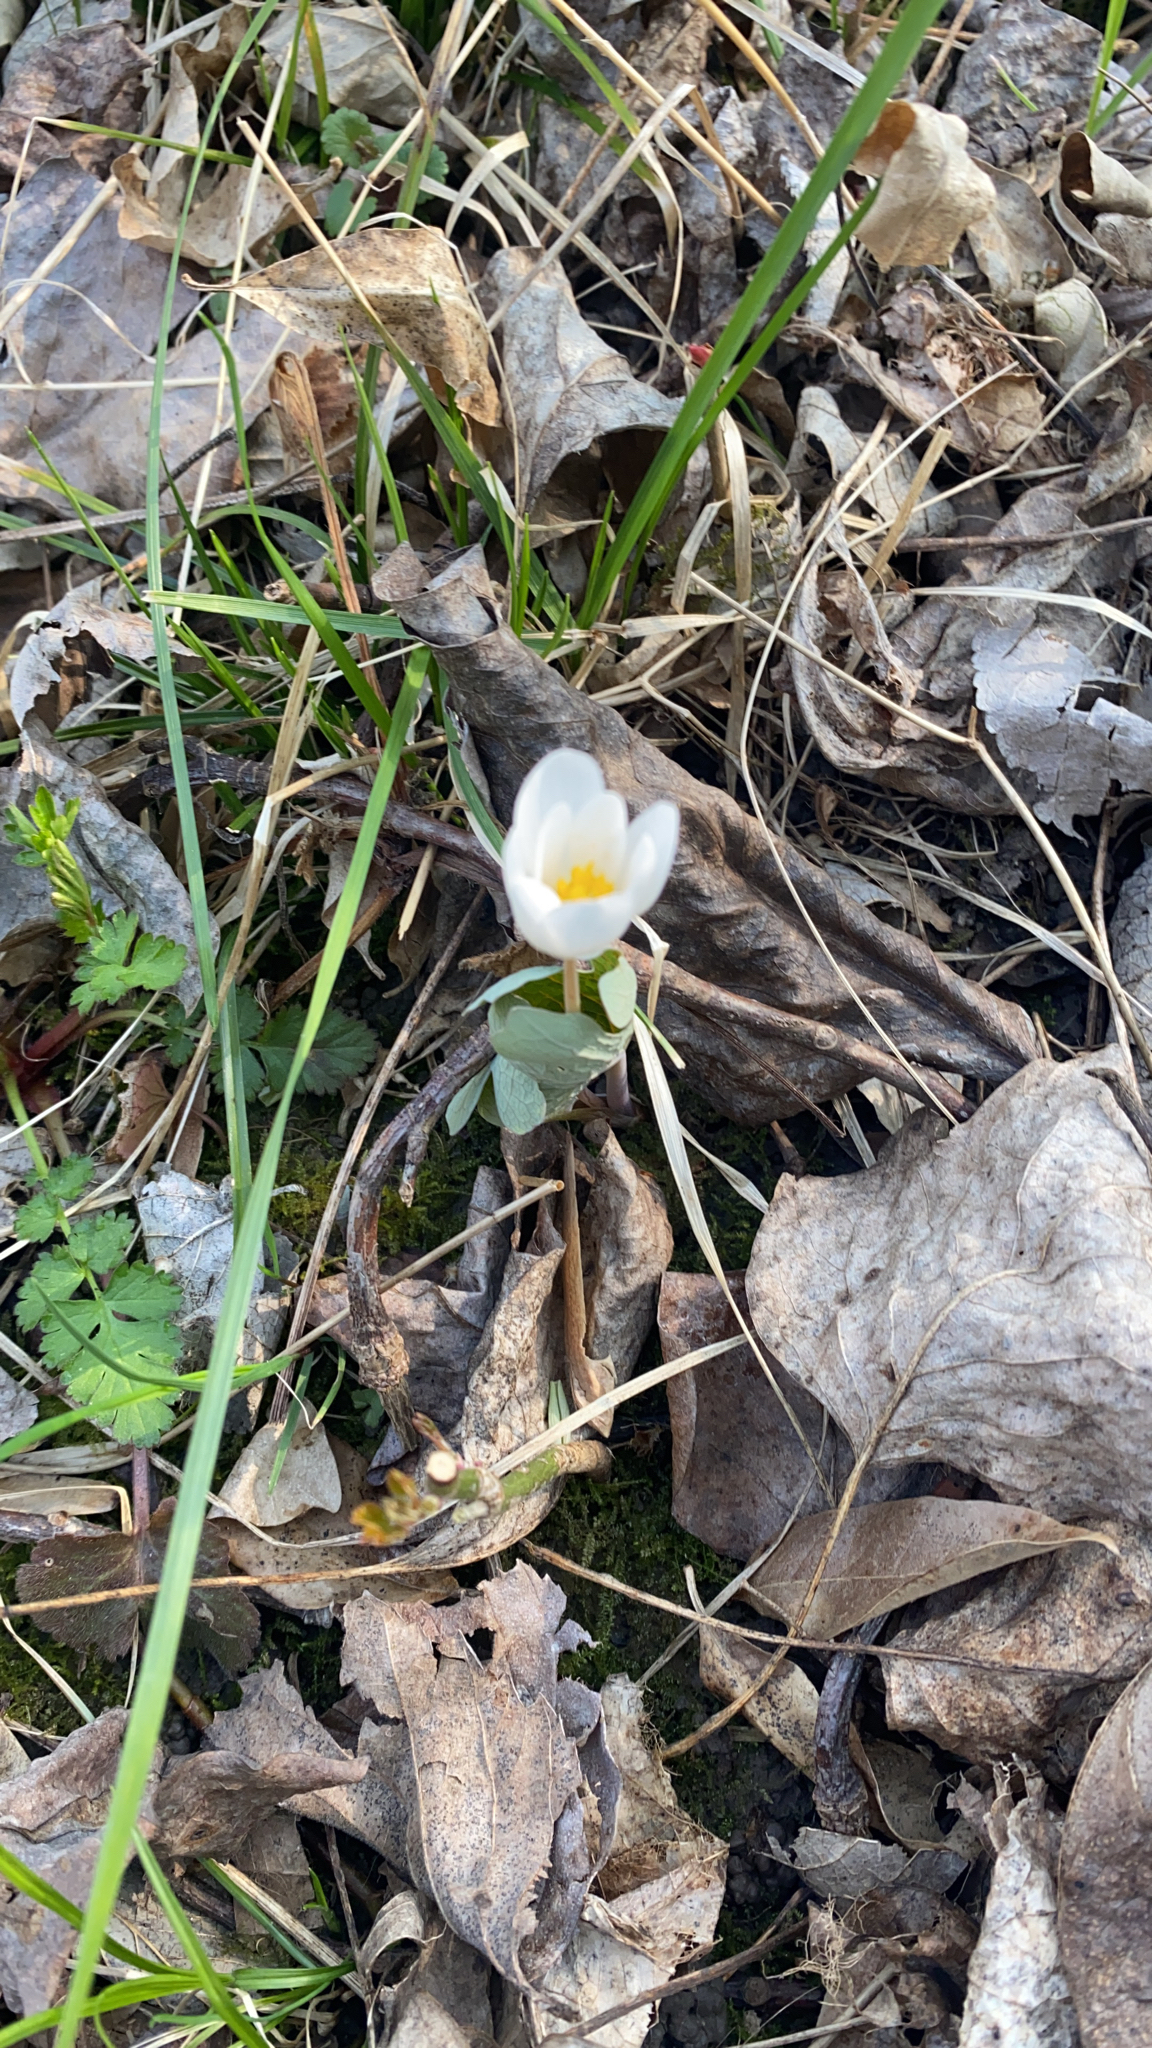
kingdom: Plantae
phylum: Tracheophyta
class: Magnoliopsida
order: Ranunculales
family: Papaveraceae
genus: Sanguinaria
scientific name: Sanguinaria canadensis
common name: Bloodroot
